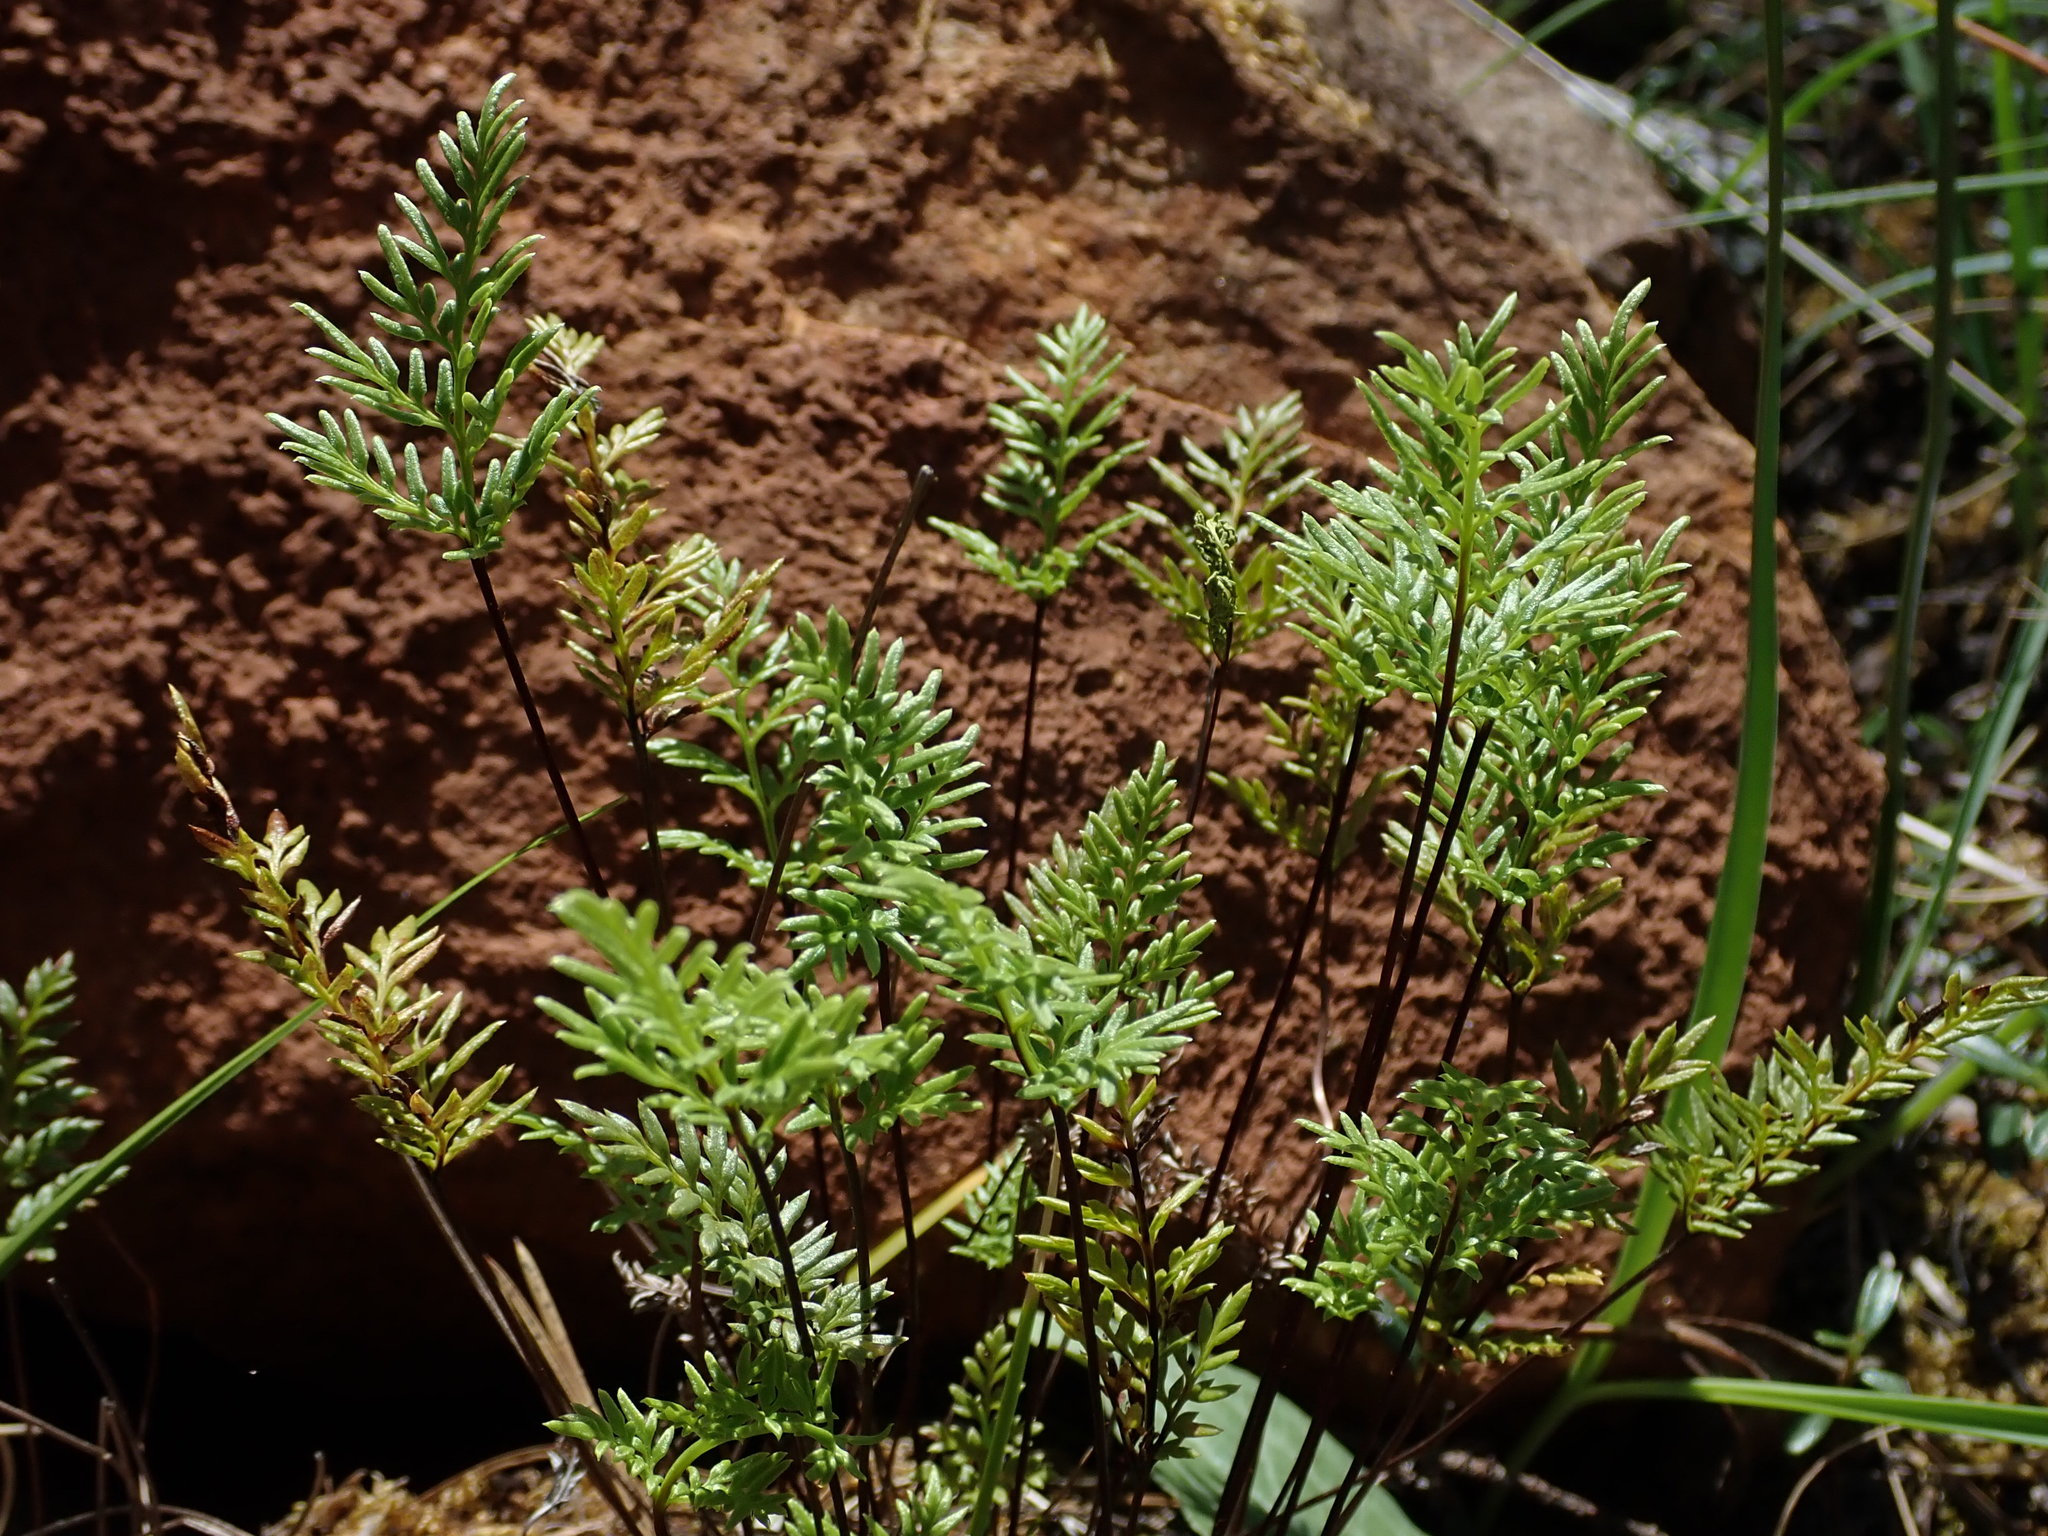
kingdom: Plantae
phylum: Tracheophyta
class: Polypodiopsida
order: Polypodiales
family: Pteridaceae
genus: Aspidotis
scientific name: Aspidotis densa
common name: Indian's dream
